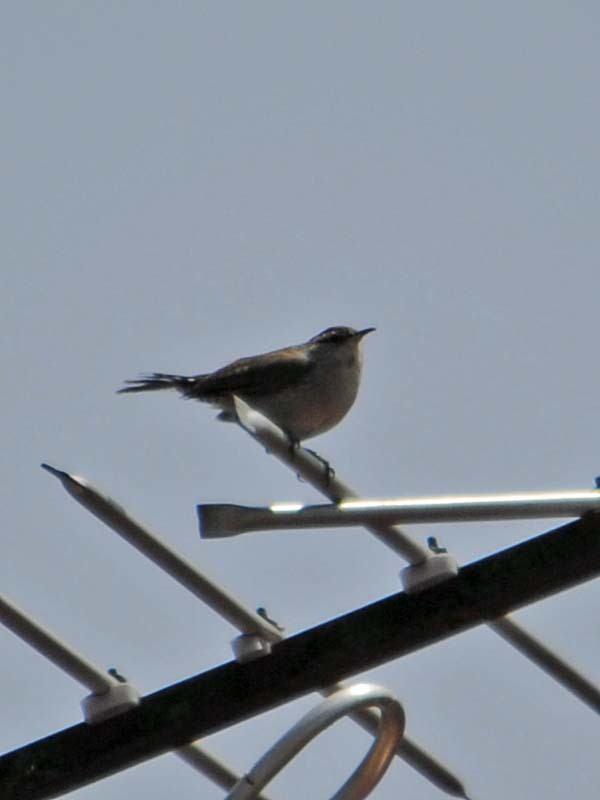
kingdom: Animalia
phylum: Chordata
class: Aves
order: Passeriformes
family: Troglodytidae
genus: Thryomanes
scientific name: Thryomanes bewickii
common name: Bewick's wren
